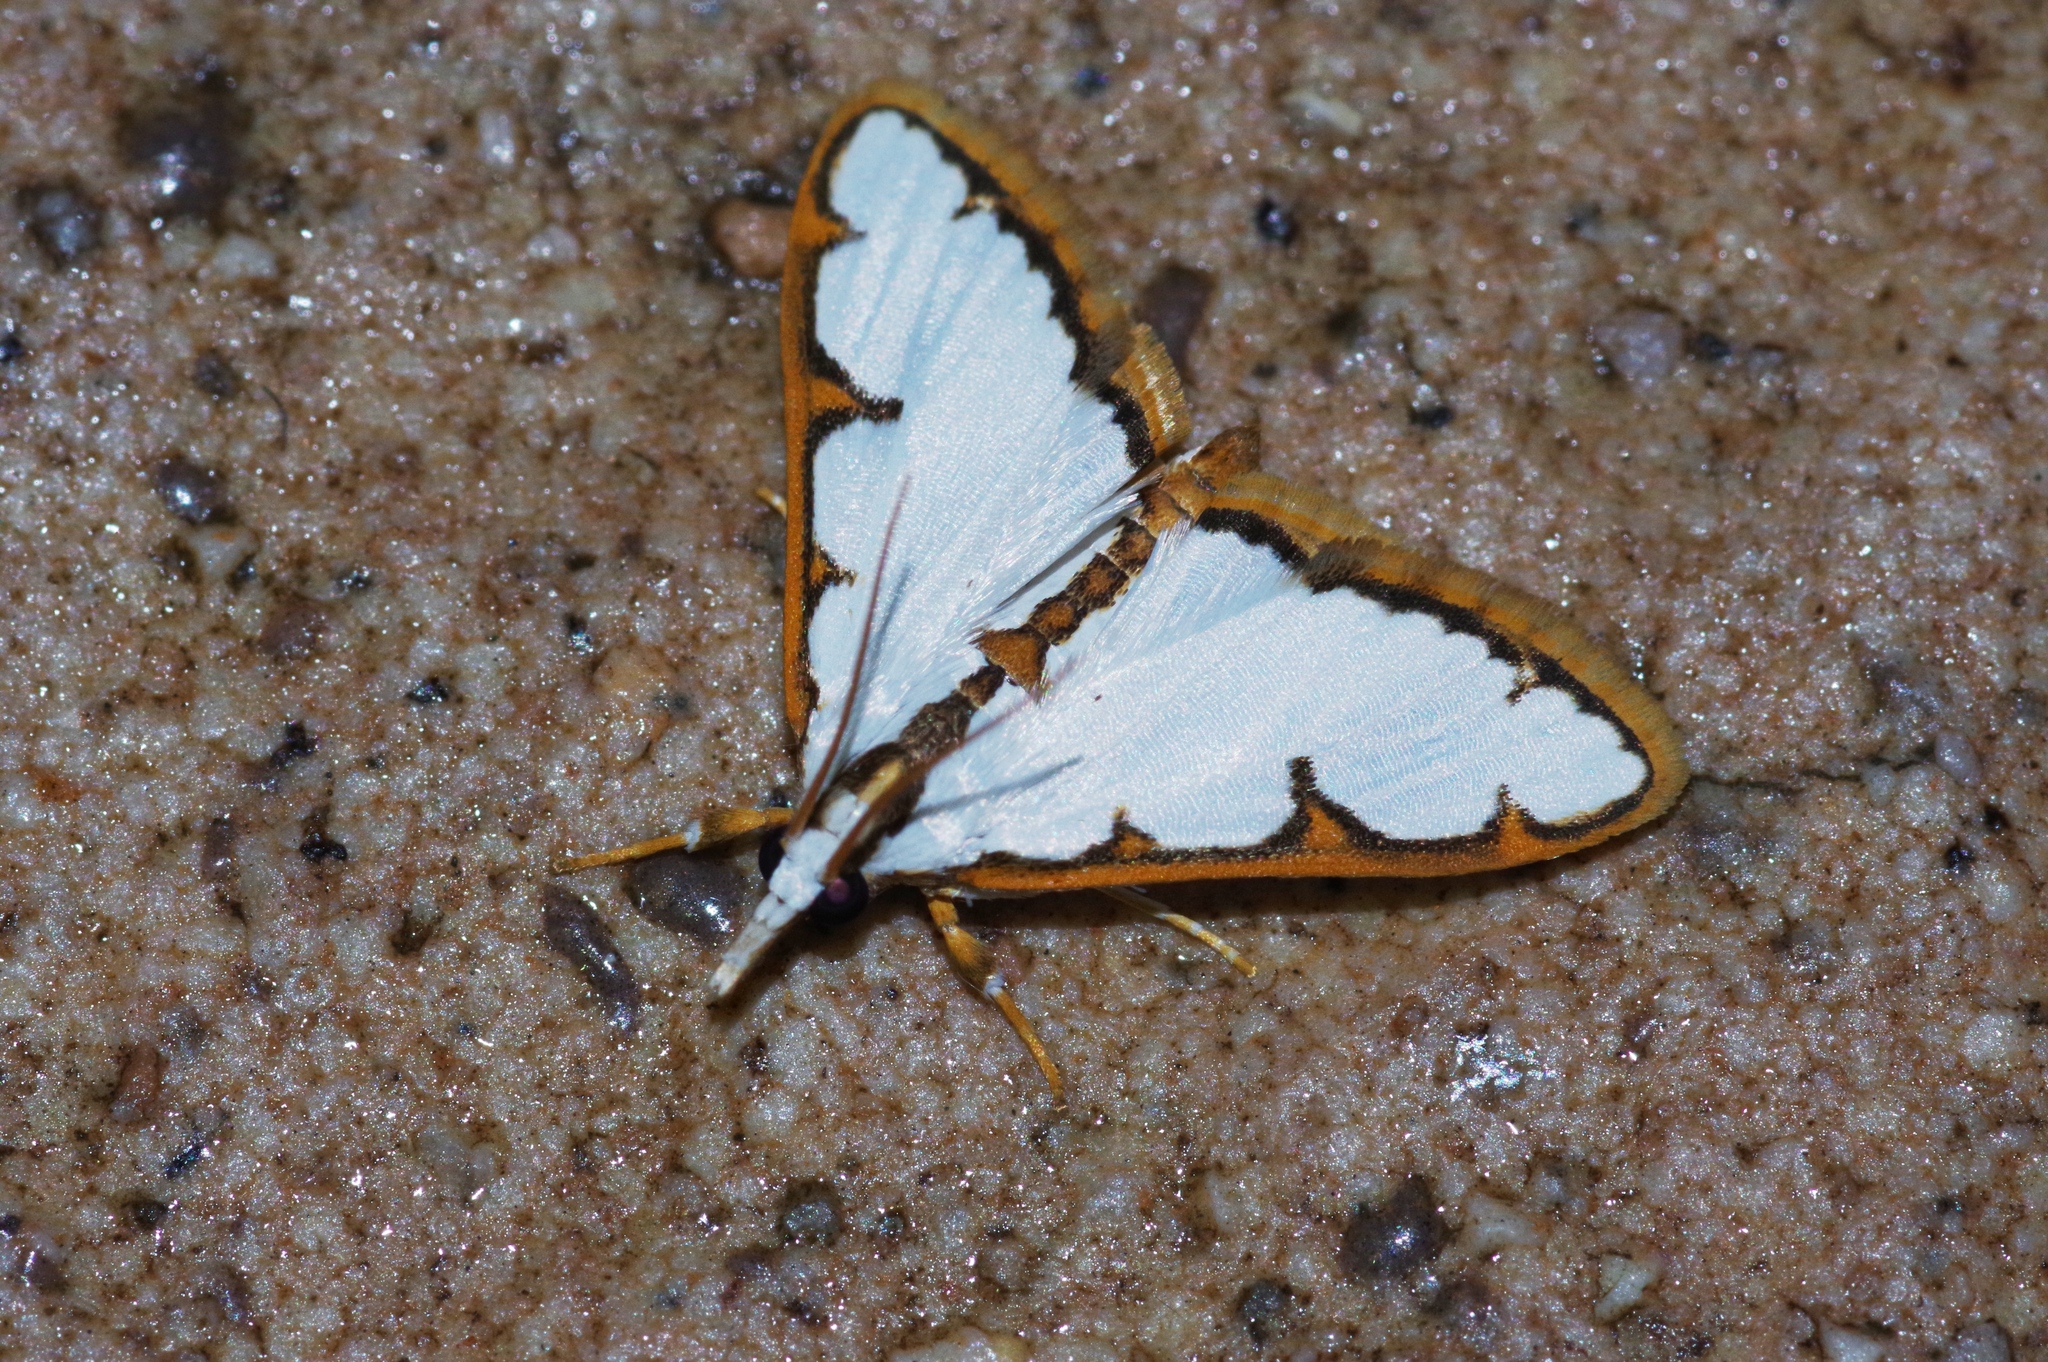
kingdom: Animalia
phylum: Arthropoda
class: Insecta
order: Lepidoptera
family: Crambidae
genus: Cirrhochrista
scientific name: Cirrhochrista brizoalis
